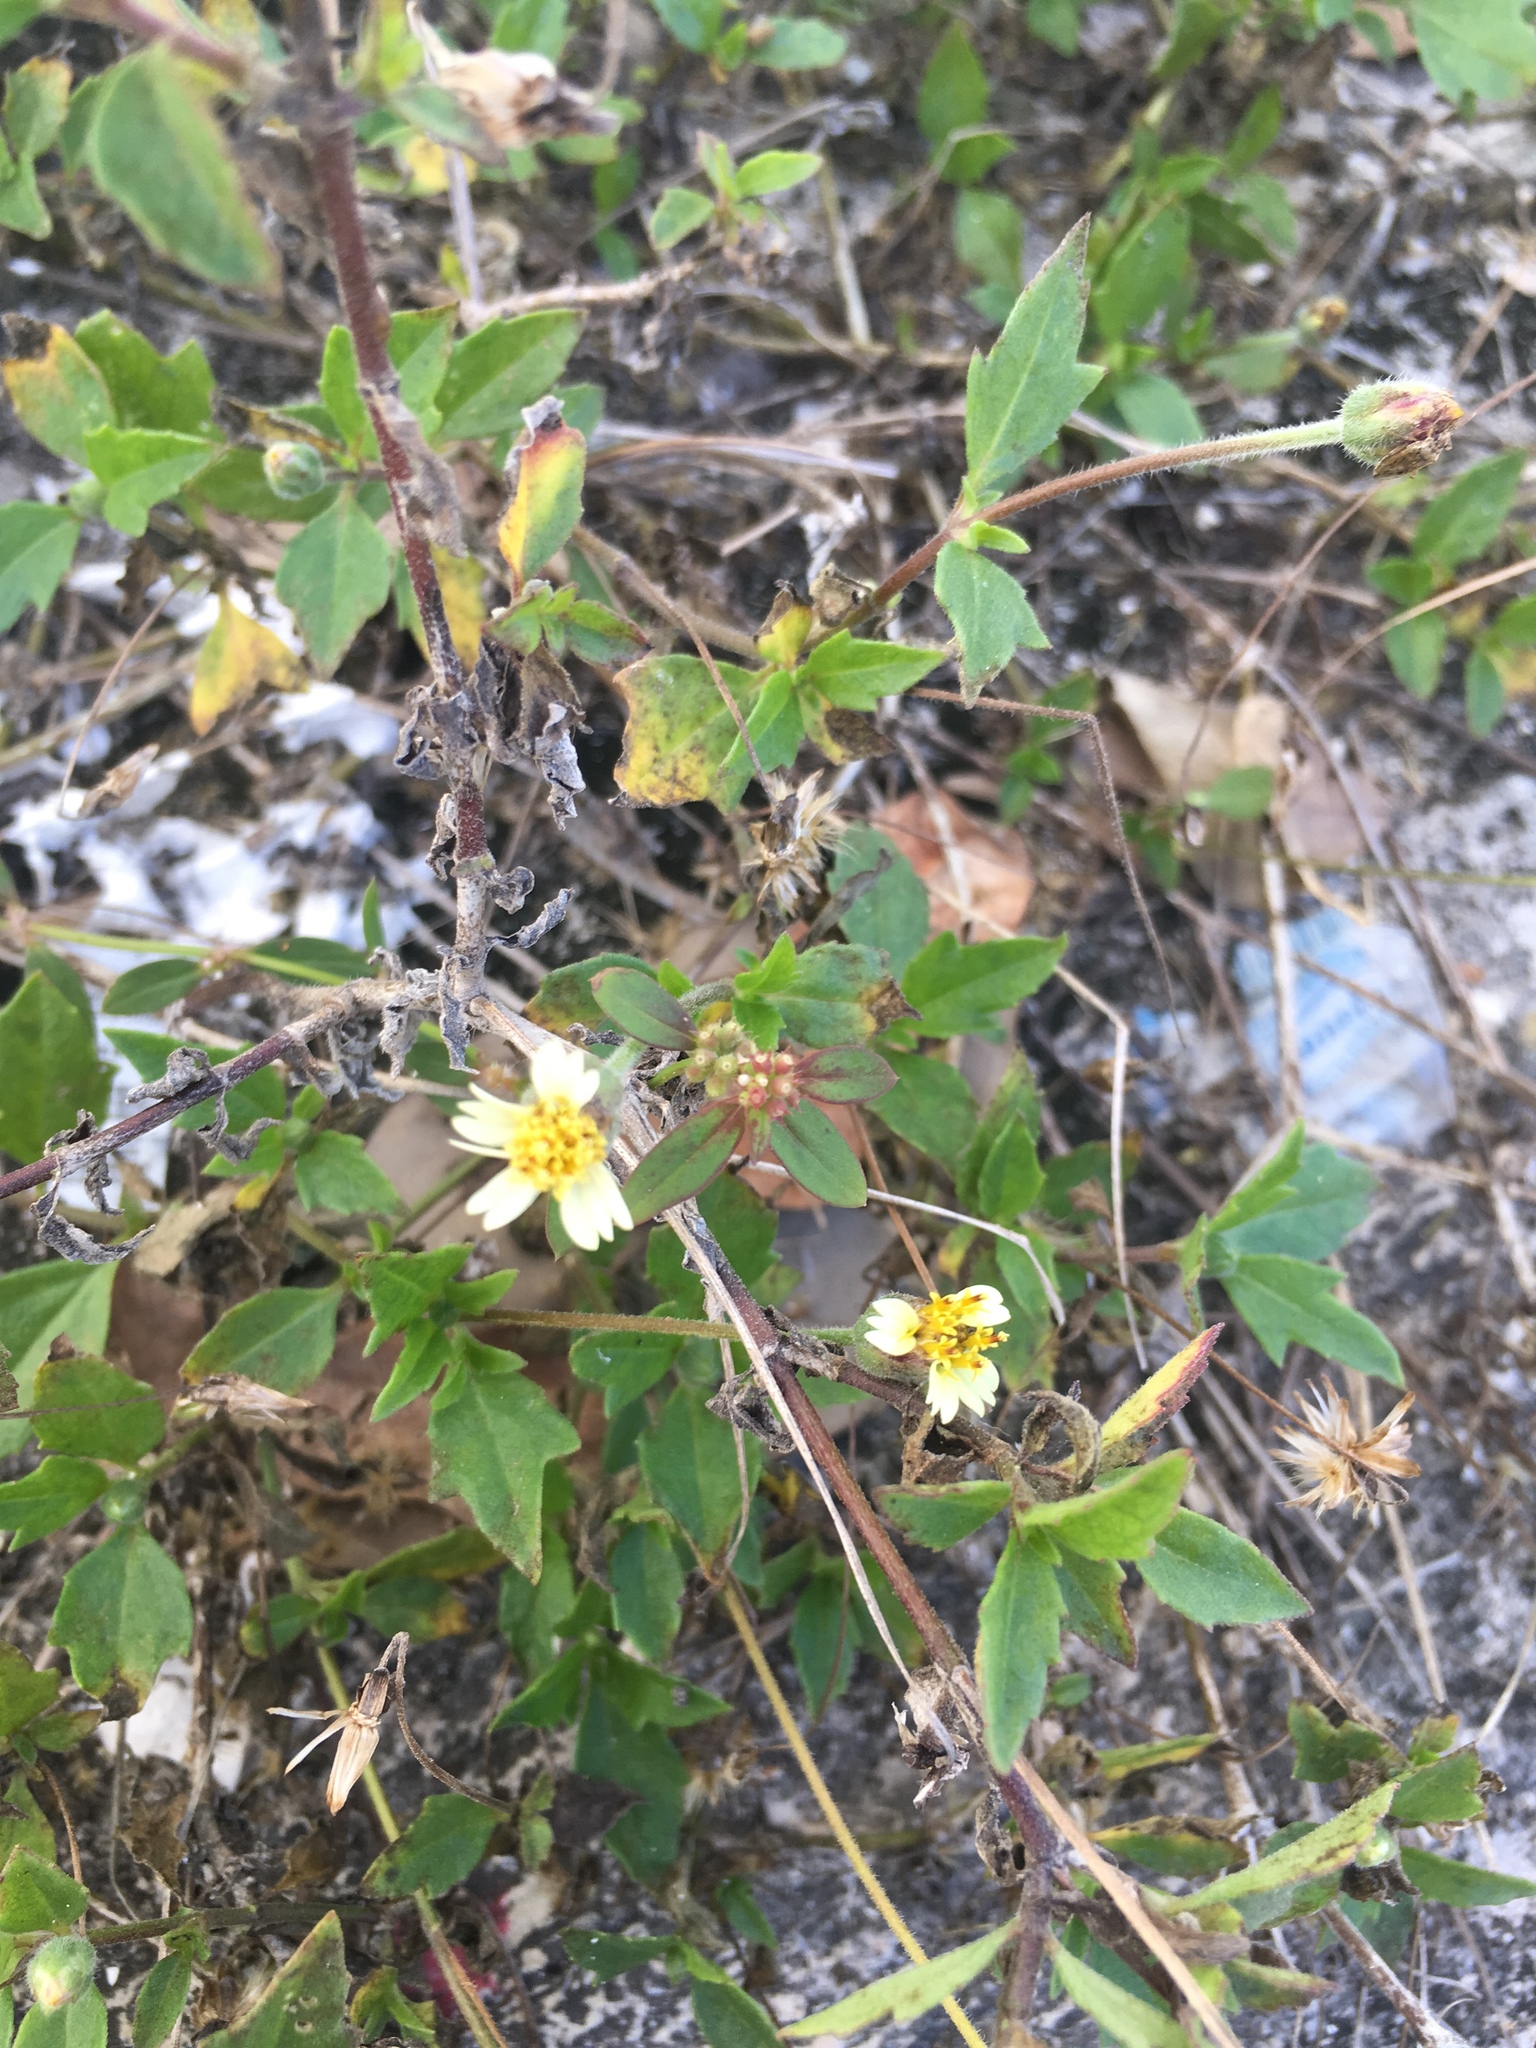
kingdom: Plantae
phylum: Tracheophyta
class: Magnoliopsida
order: Asterales
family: Asteraceae
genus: Tridax
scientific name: Tridax procumbens
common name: Coatbuttons
